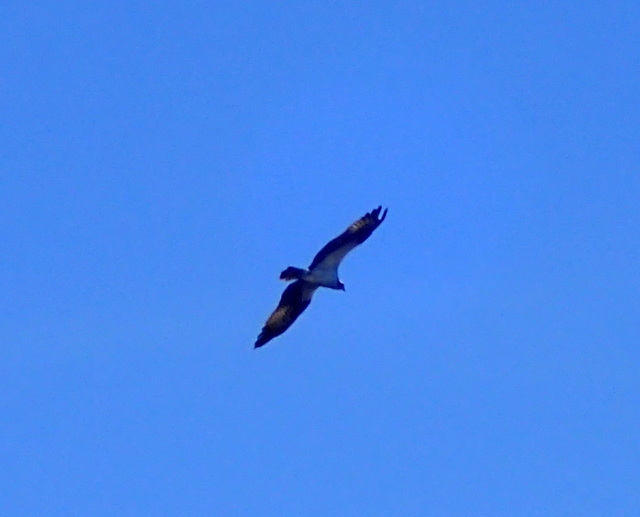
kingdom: Animalia
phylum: Chordata
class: Aves
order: Accipitriformes
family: Pandionidae
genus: Pandion
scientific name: Pandion haliaetus
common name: Osprey
